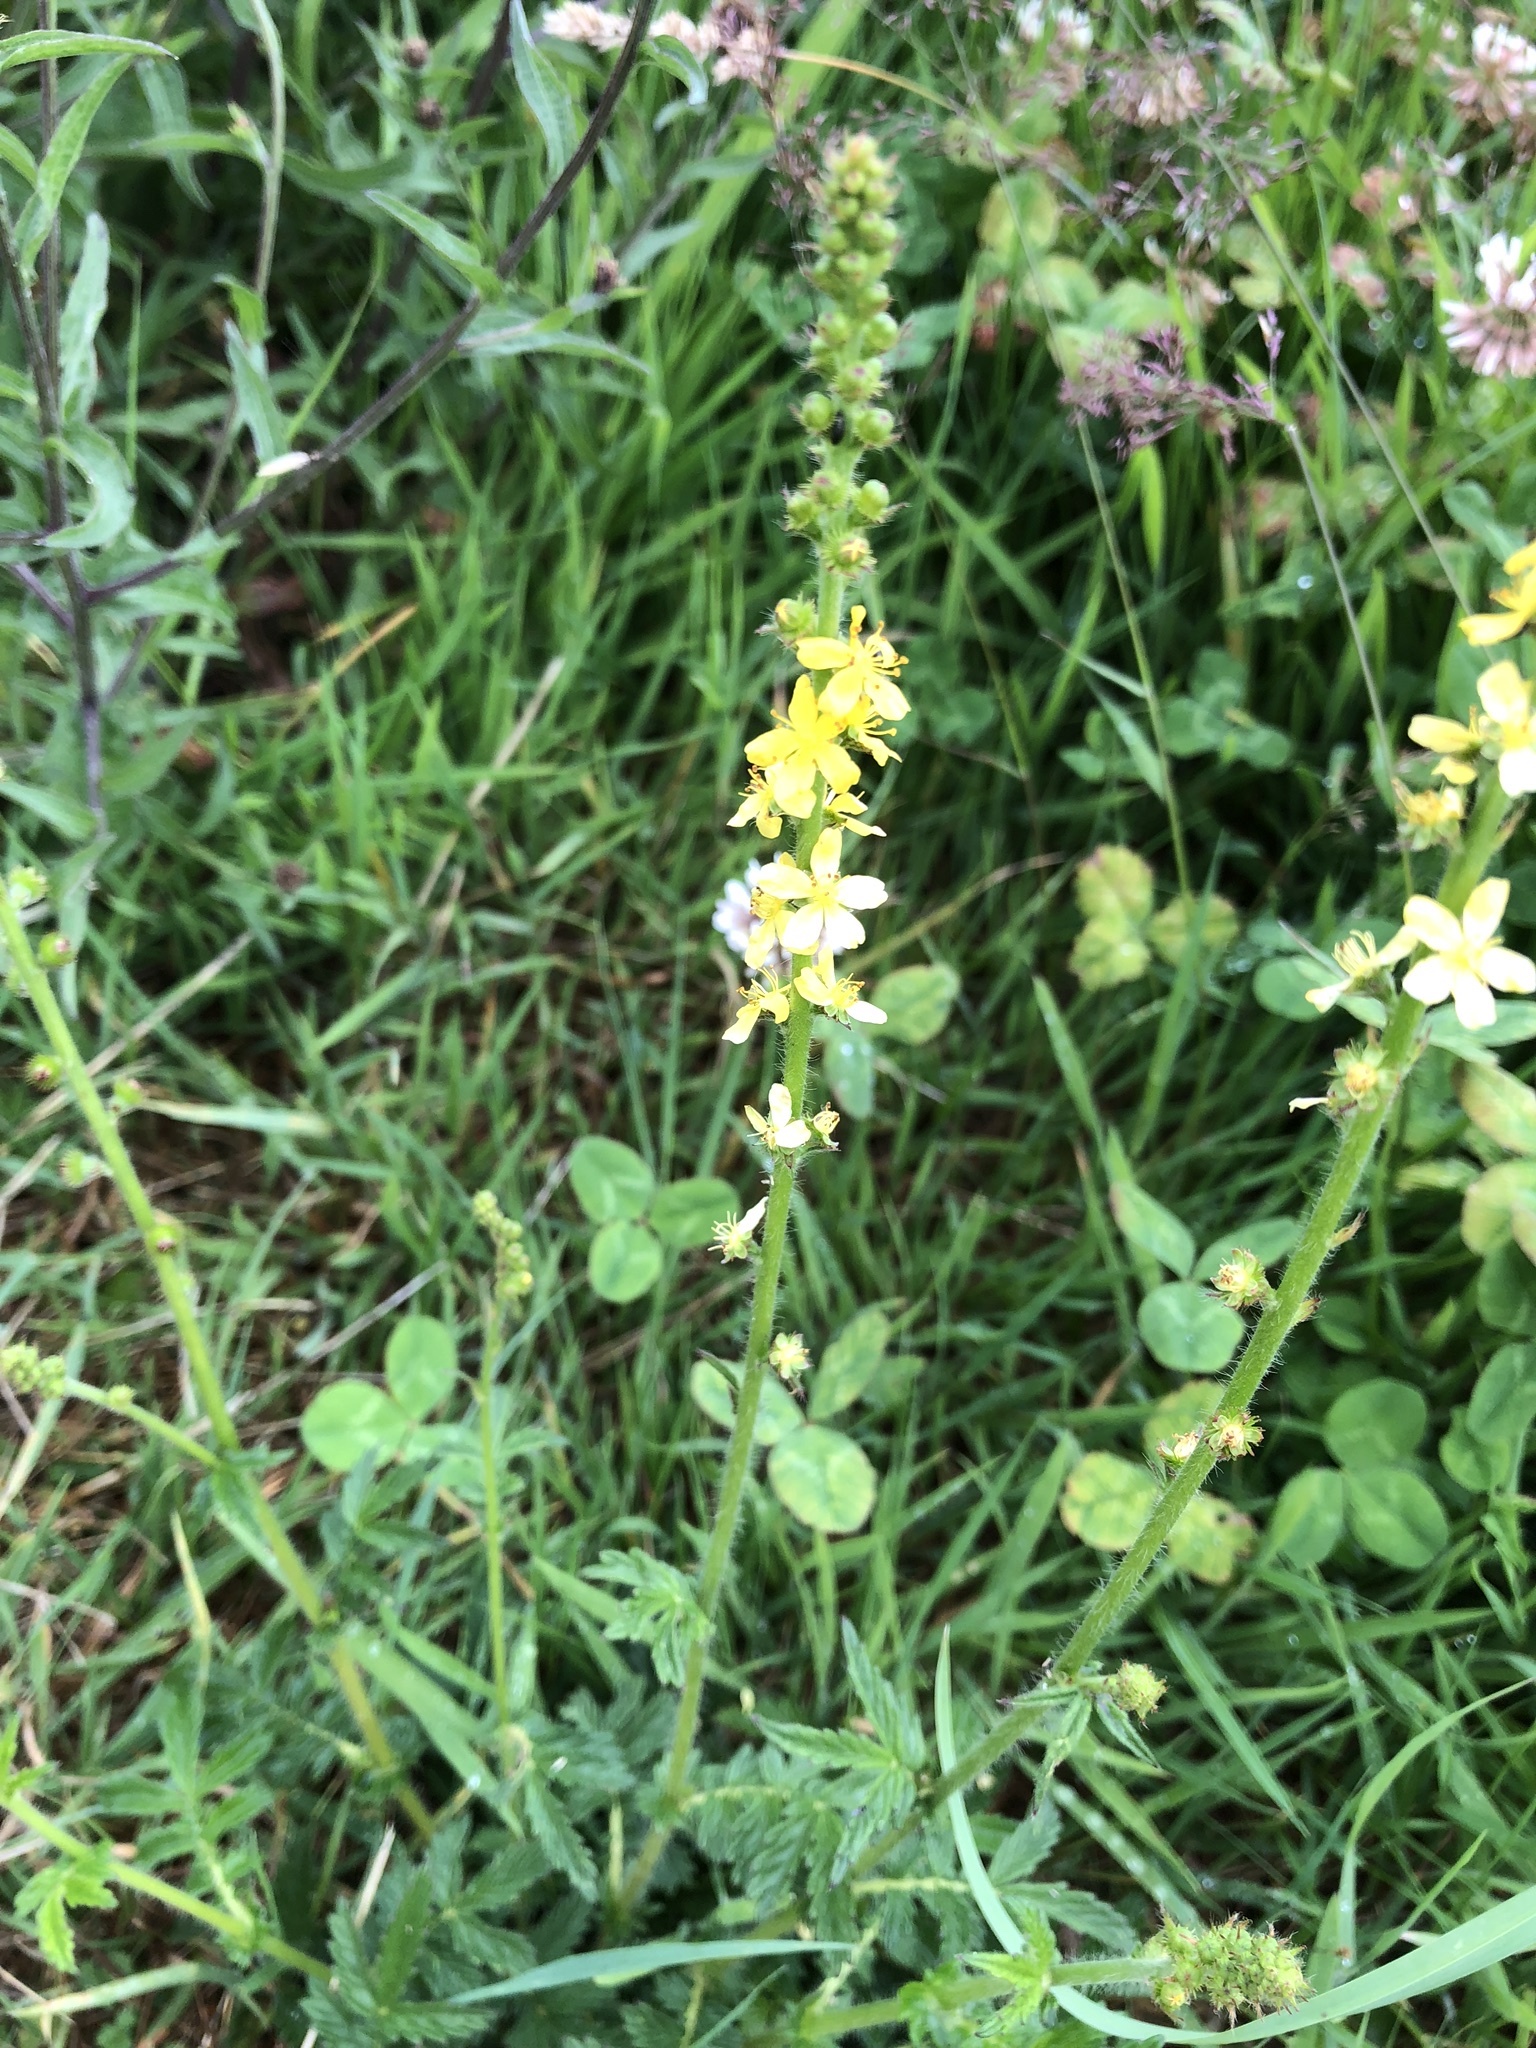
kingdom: Plantae
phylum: Tracheophyta
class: Magnoliopsida
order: Rosales
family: Rosaceae
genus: Agrimonia
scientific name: Agrimonia eupatoria
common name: Agrimony
